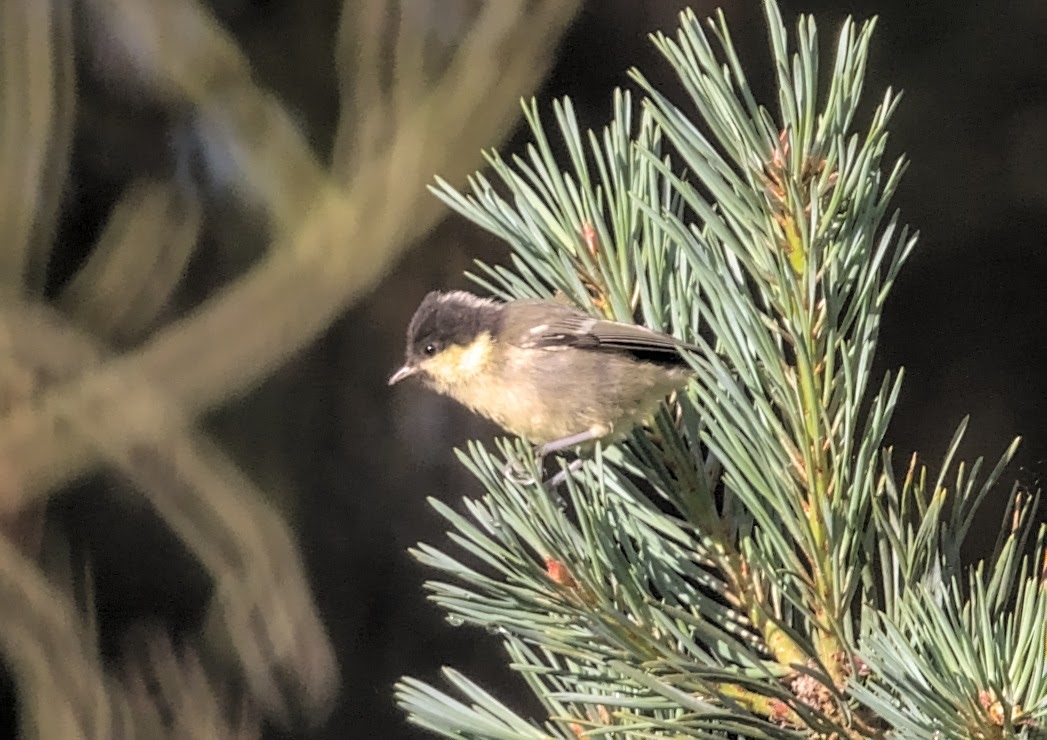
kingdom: Animalia
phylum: Chordata
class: Aves
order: Passeriformes
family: Paridae
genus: Periparus
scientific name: Periparus ater
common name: Coal tit
